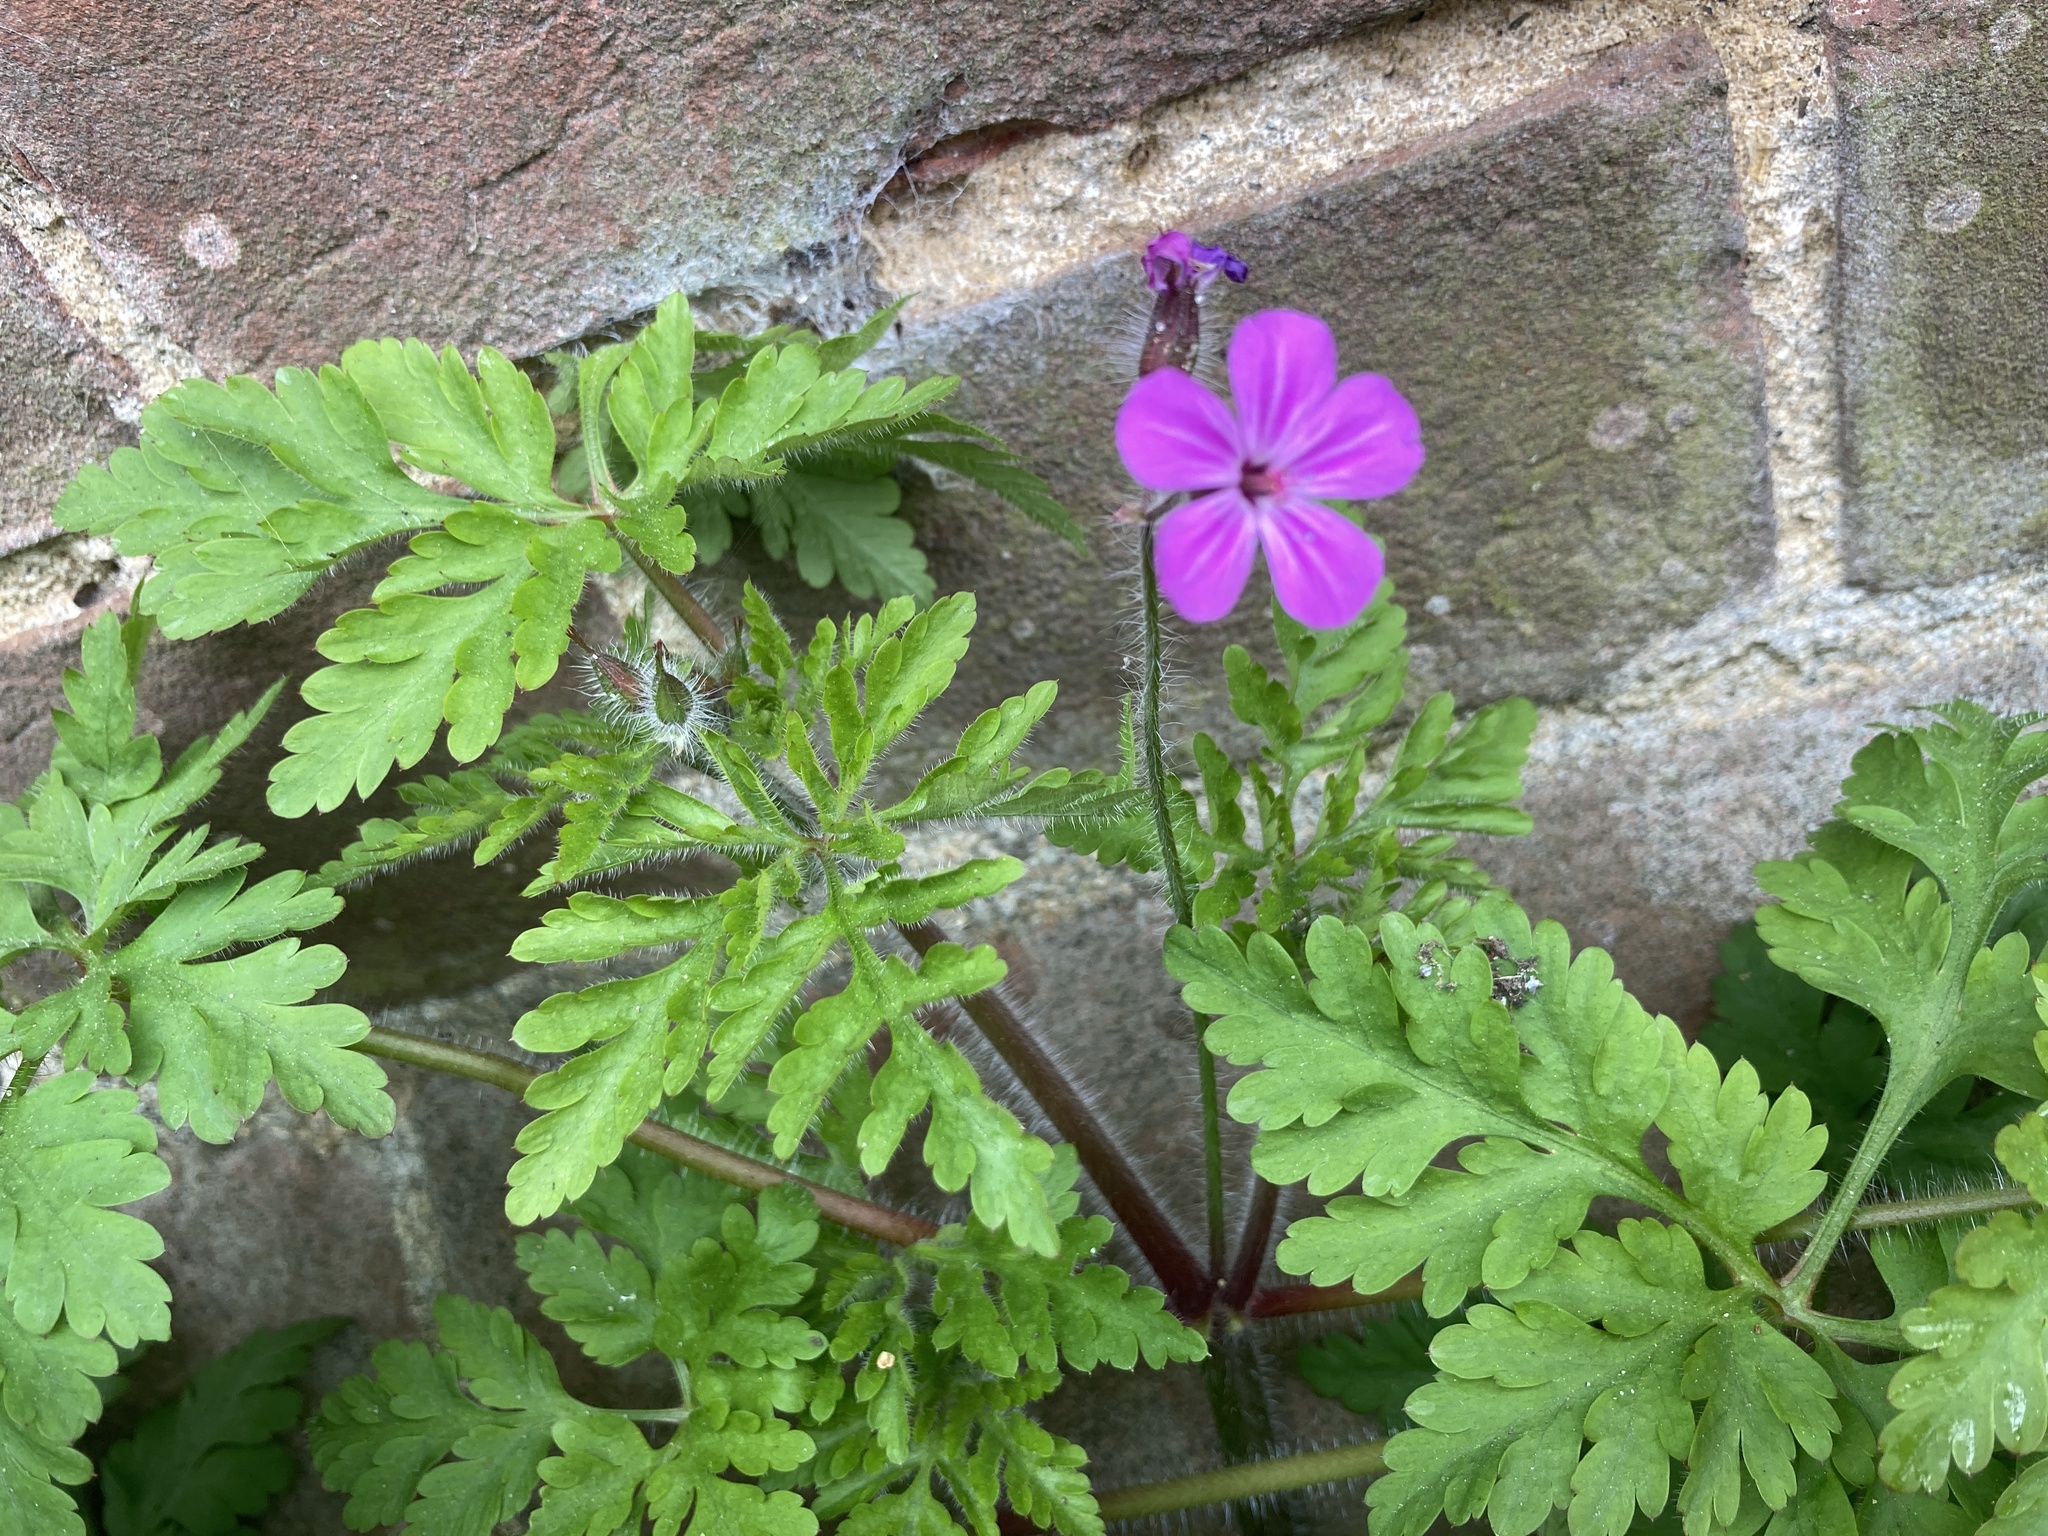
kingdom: Plantae
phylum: Tracheophyta
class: Magnoliopsida
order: Geraniales
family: Geraniaceae
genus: Geranium
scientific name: Geranium robertianum
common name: Herb-robert
